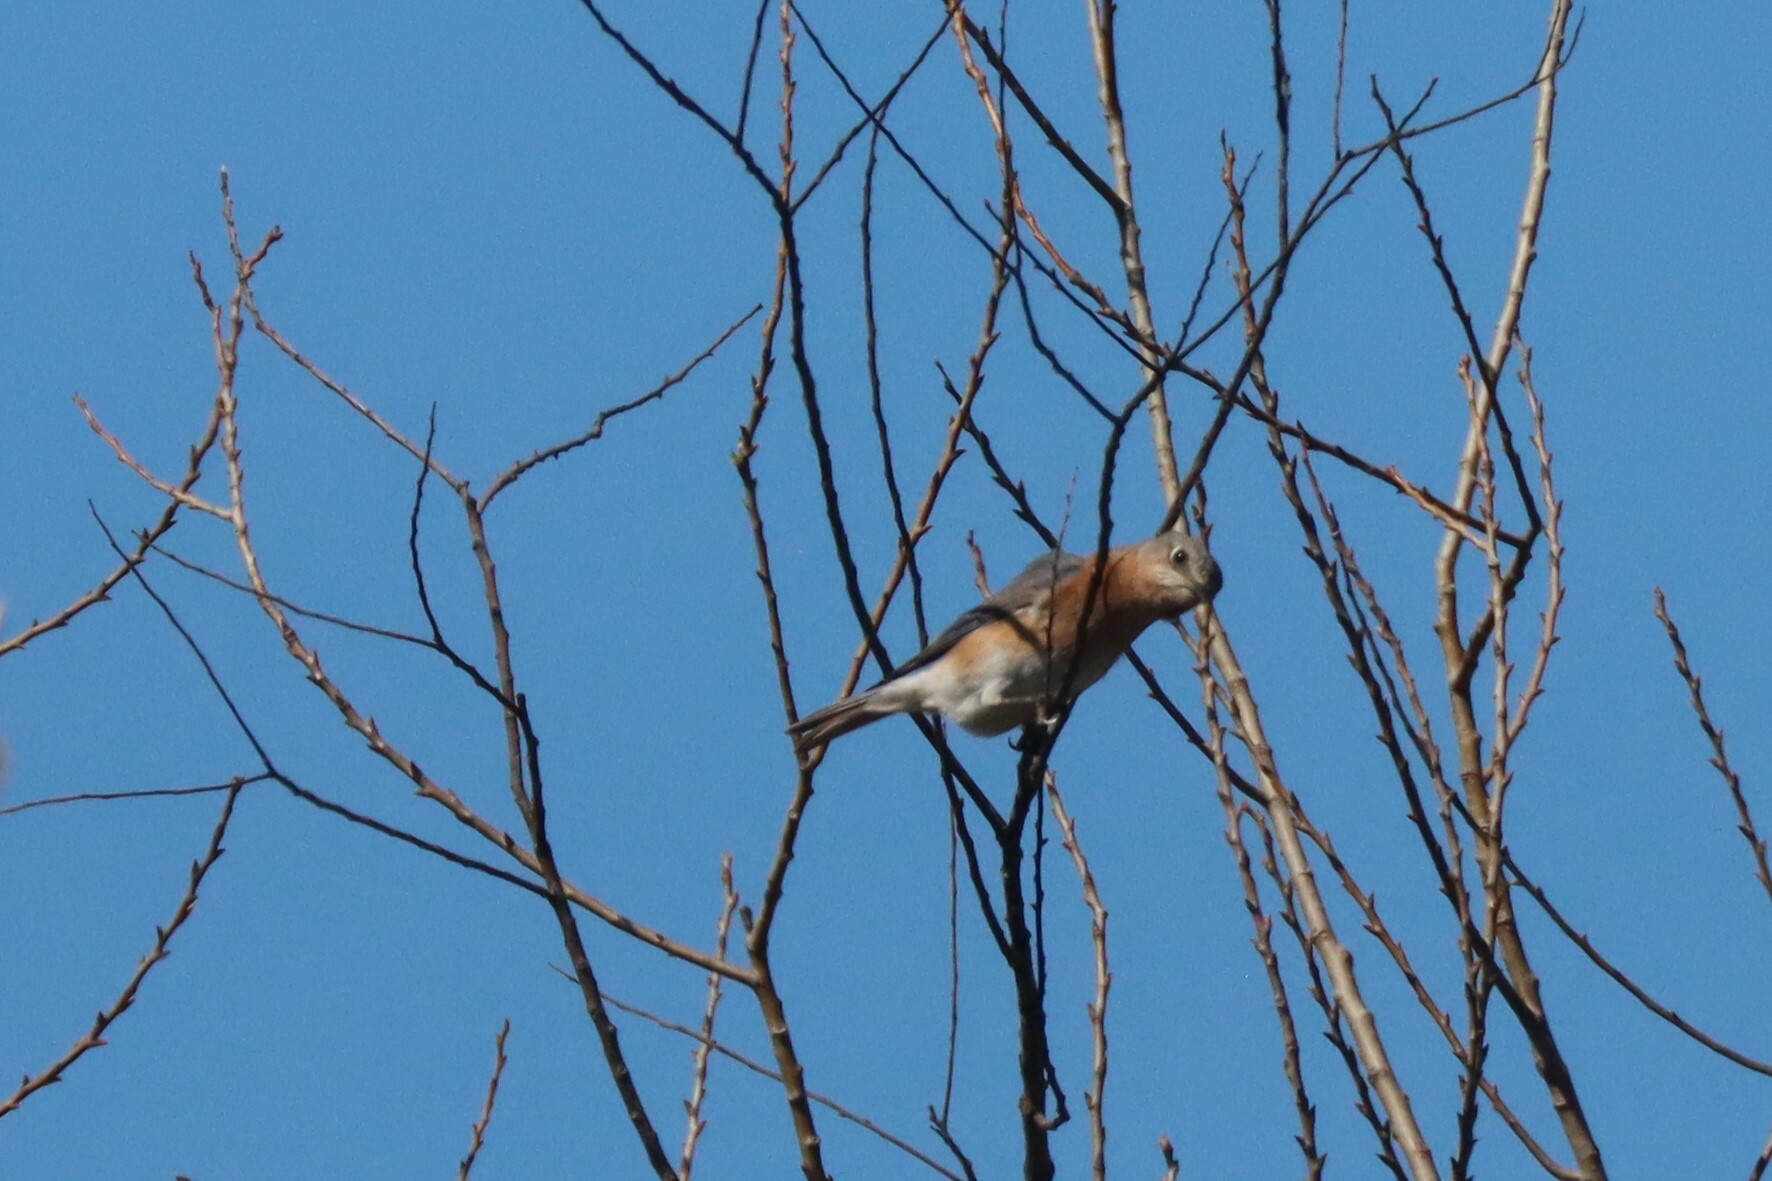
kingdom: Animalia
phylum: Chordata
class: Aves
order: Passeriformes
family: Turdidae
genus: Sialia
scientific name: Sialia sialis
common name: Eastern bluebird
